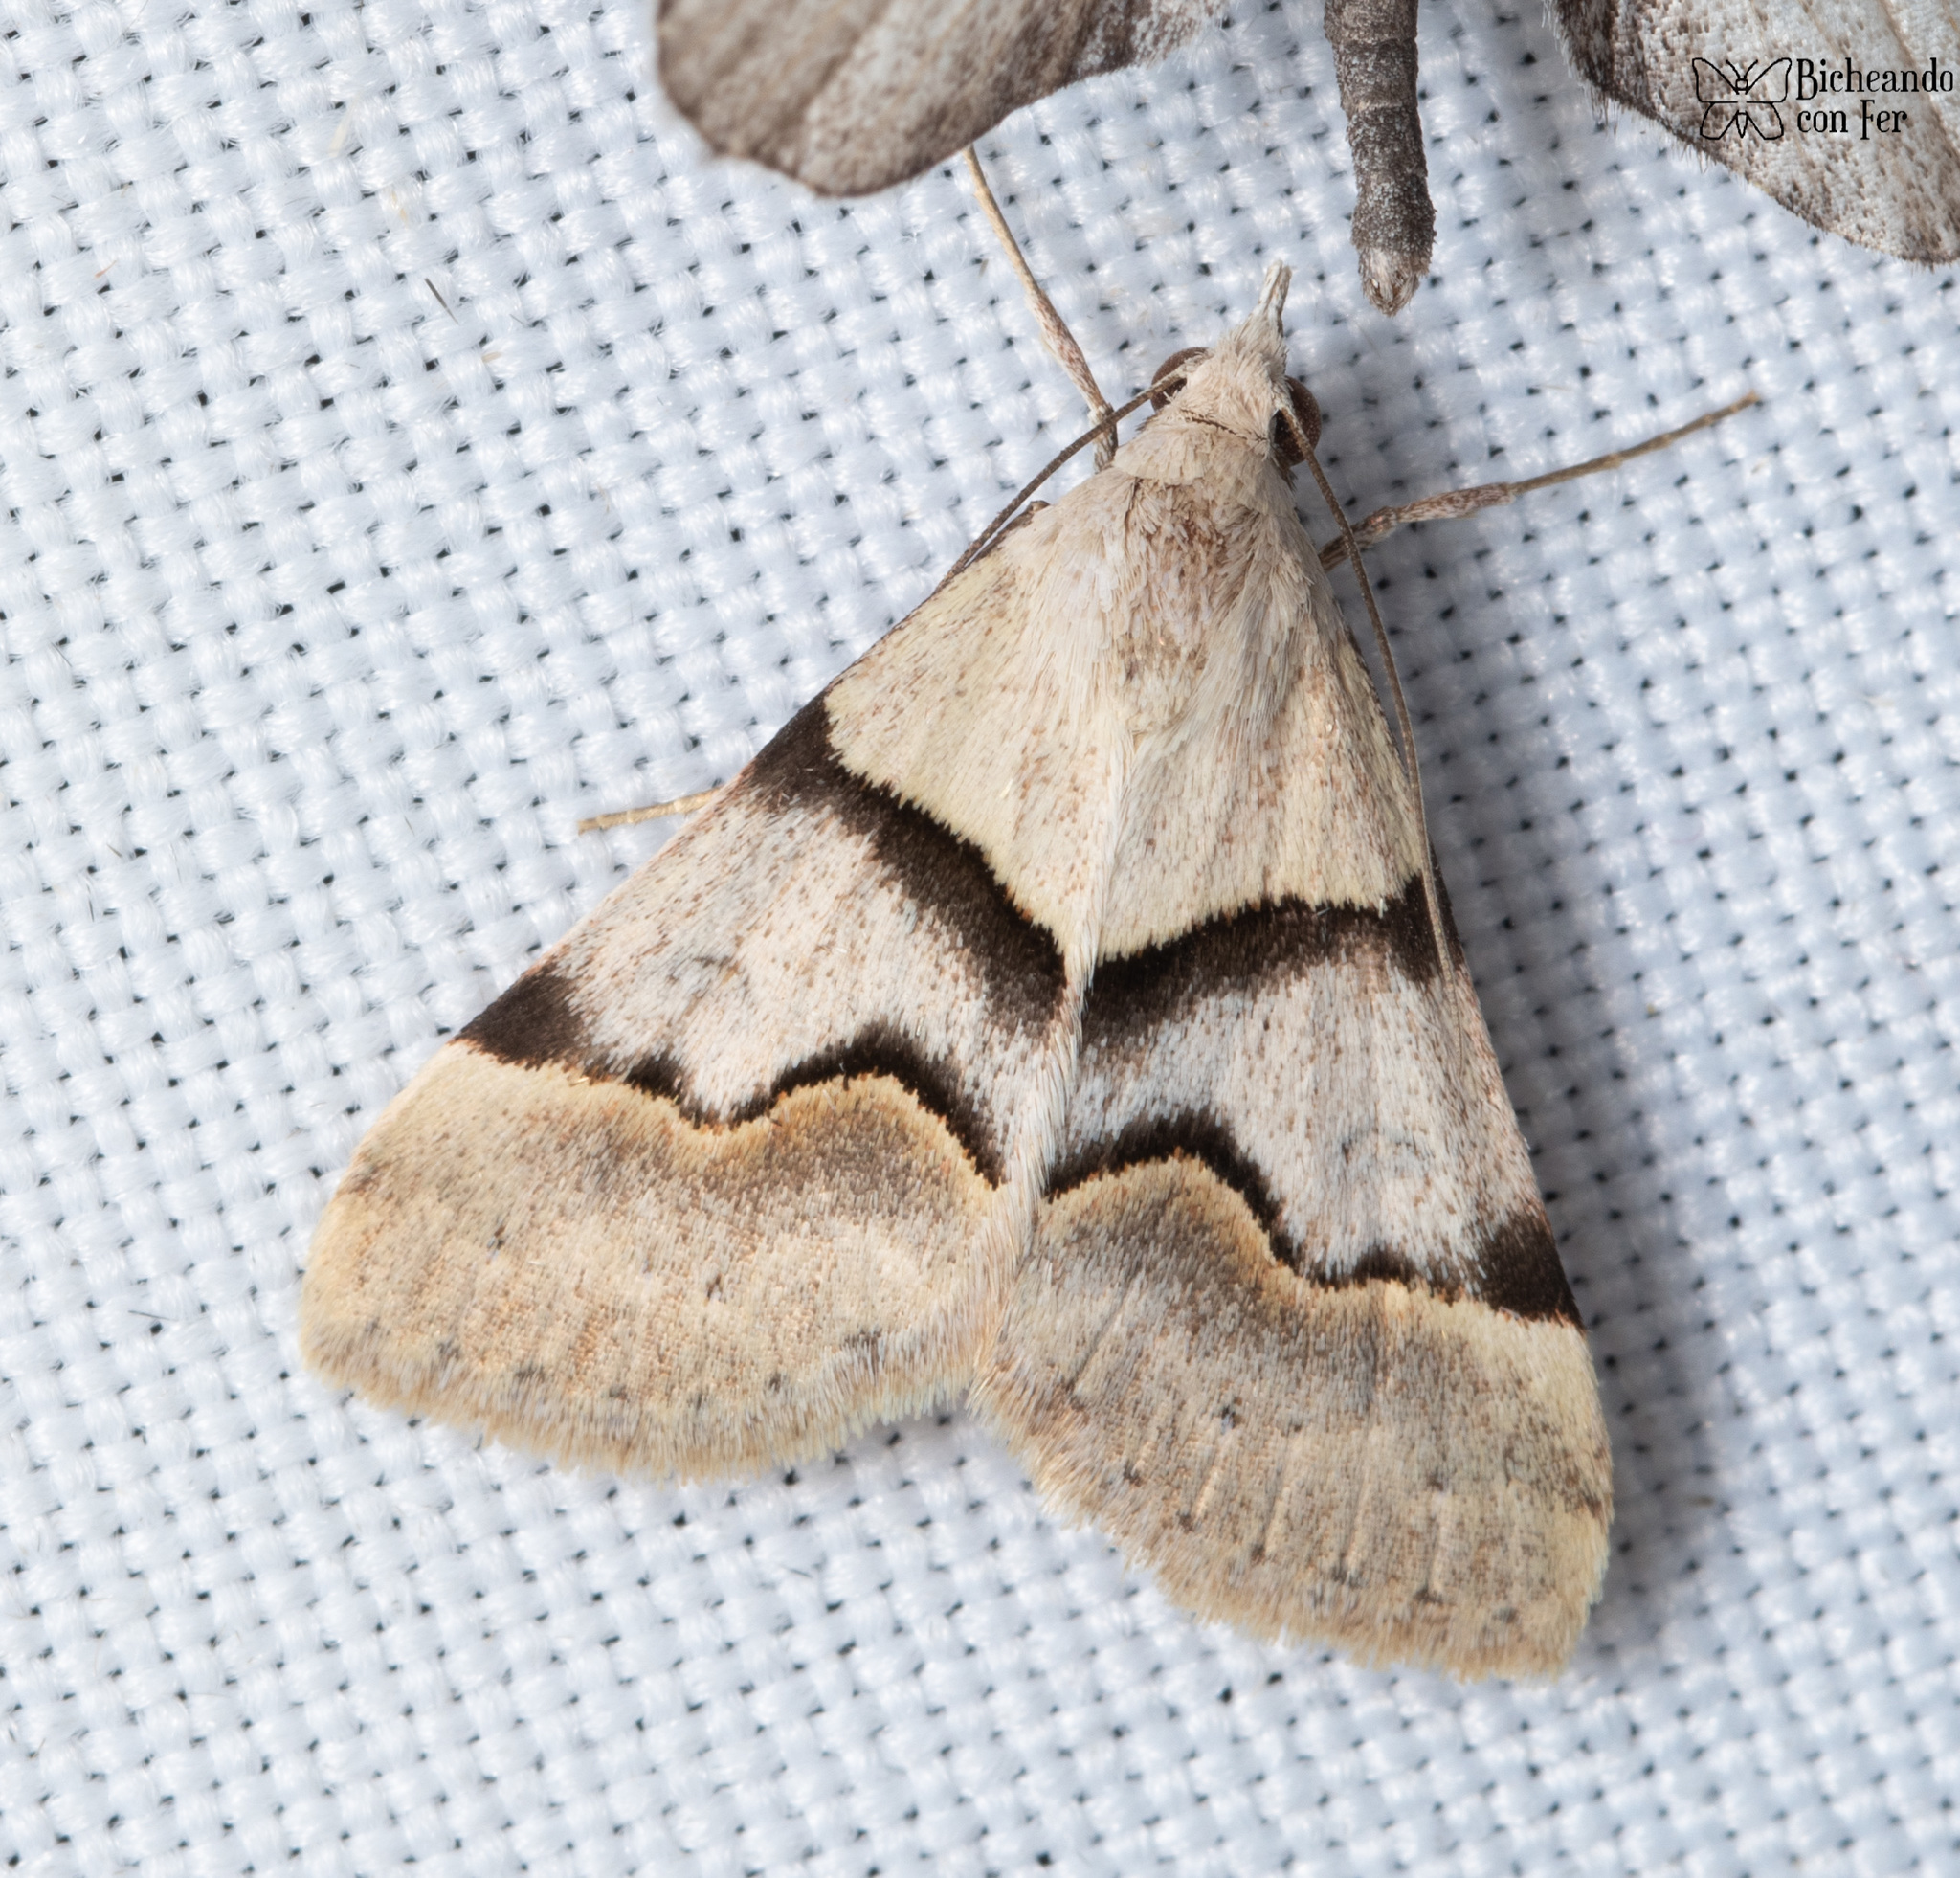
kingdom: Animalia
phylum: Arthropoda
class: Insecta
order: Lepidoptera
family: Erebidae
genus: Hemeroplanis
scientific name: Hemeroplanis incusalis
